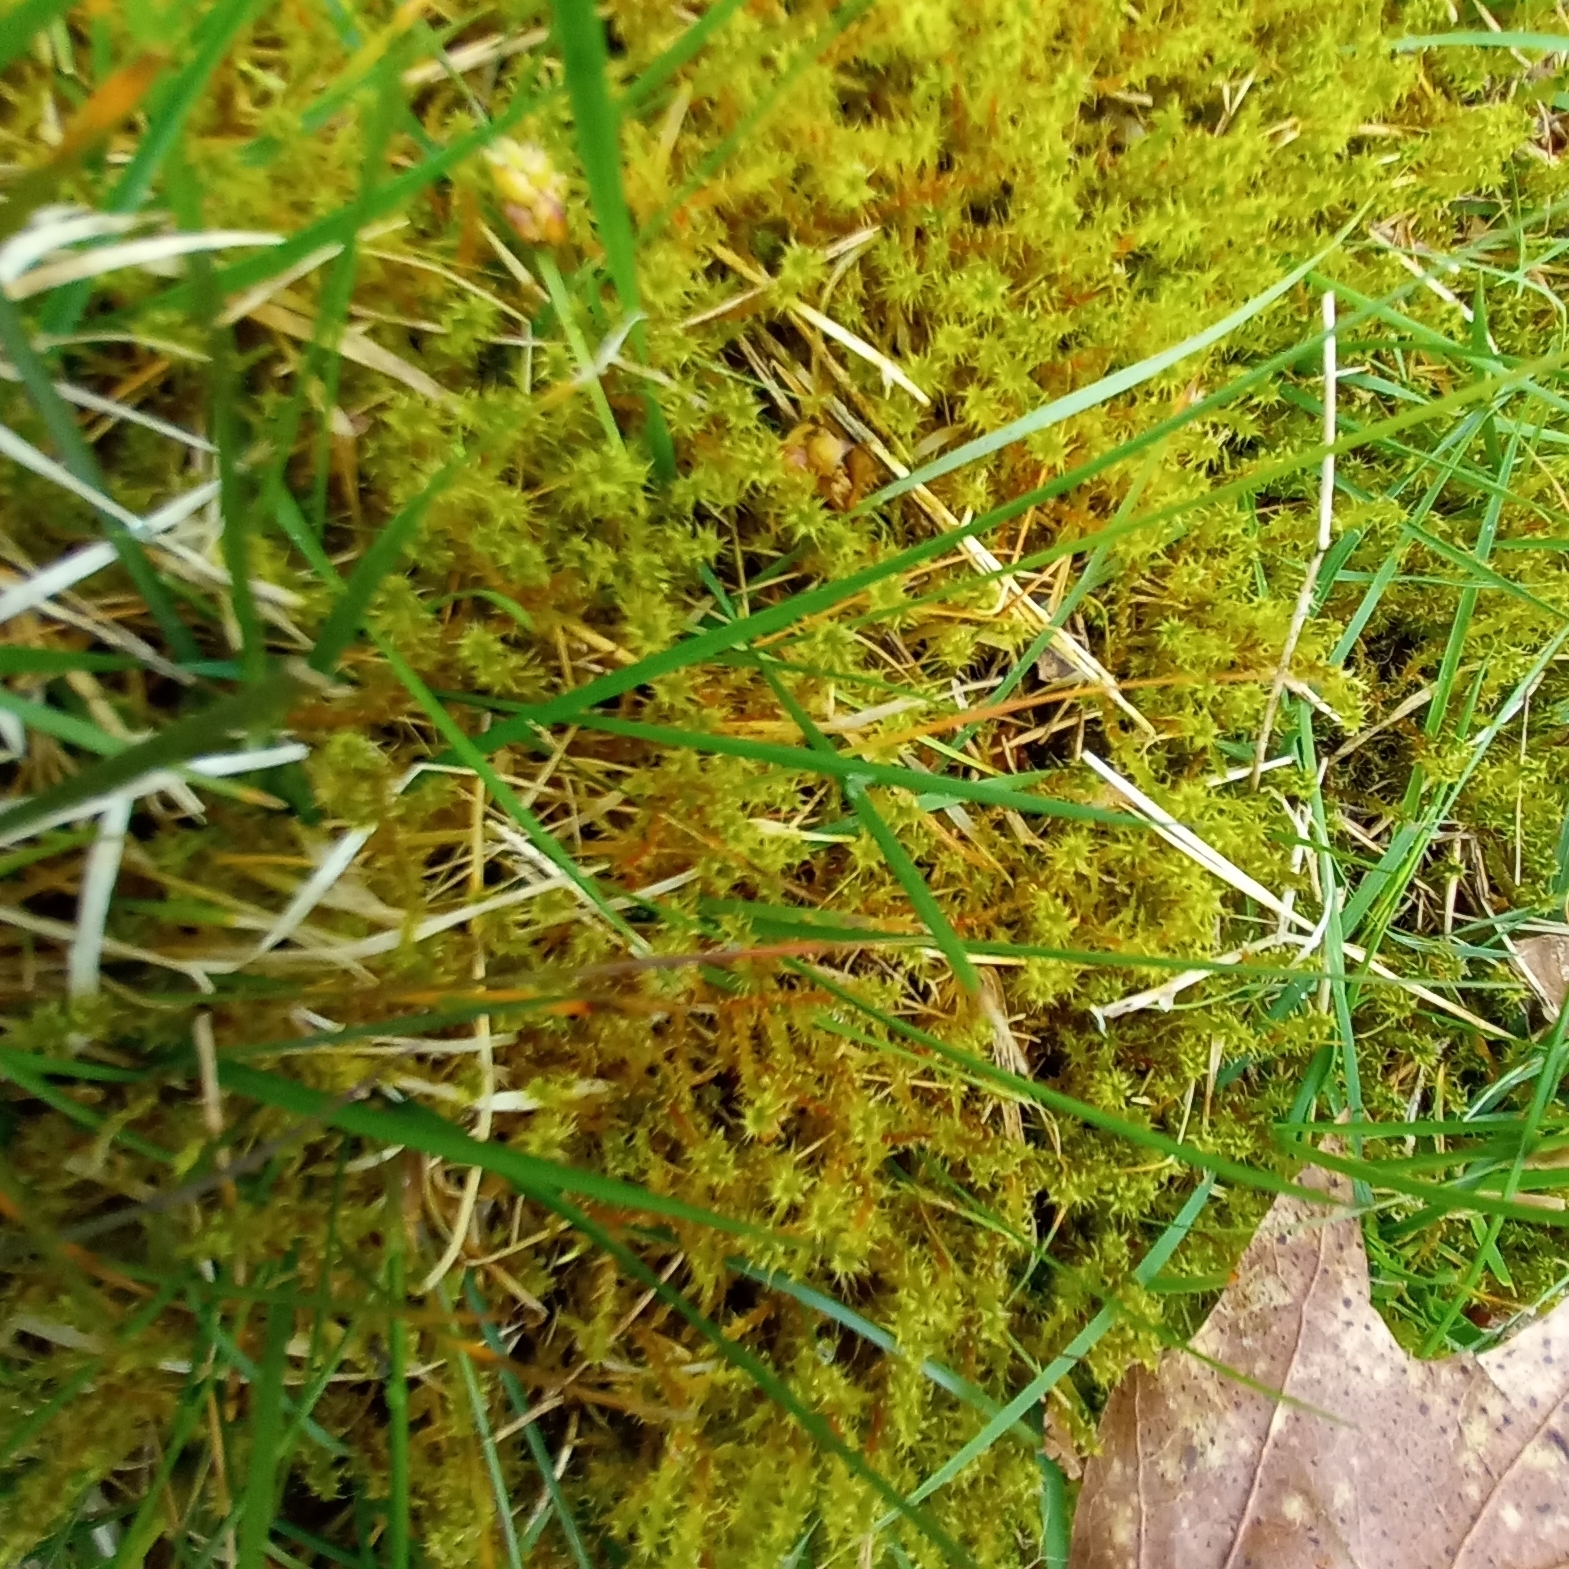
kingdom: Plantae
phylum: Bryophyta
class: Bryopsida
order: Hypnales
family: Hylocomiaceae
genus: Rhytidiadelphus
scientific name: Rhytidiadelphus squarrosus
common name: Springy turf-moss
